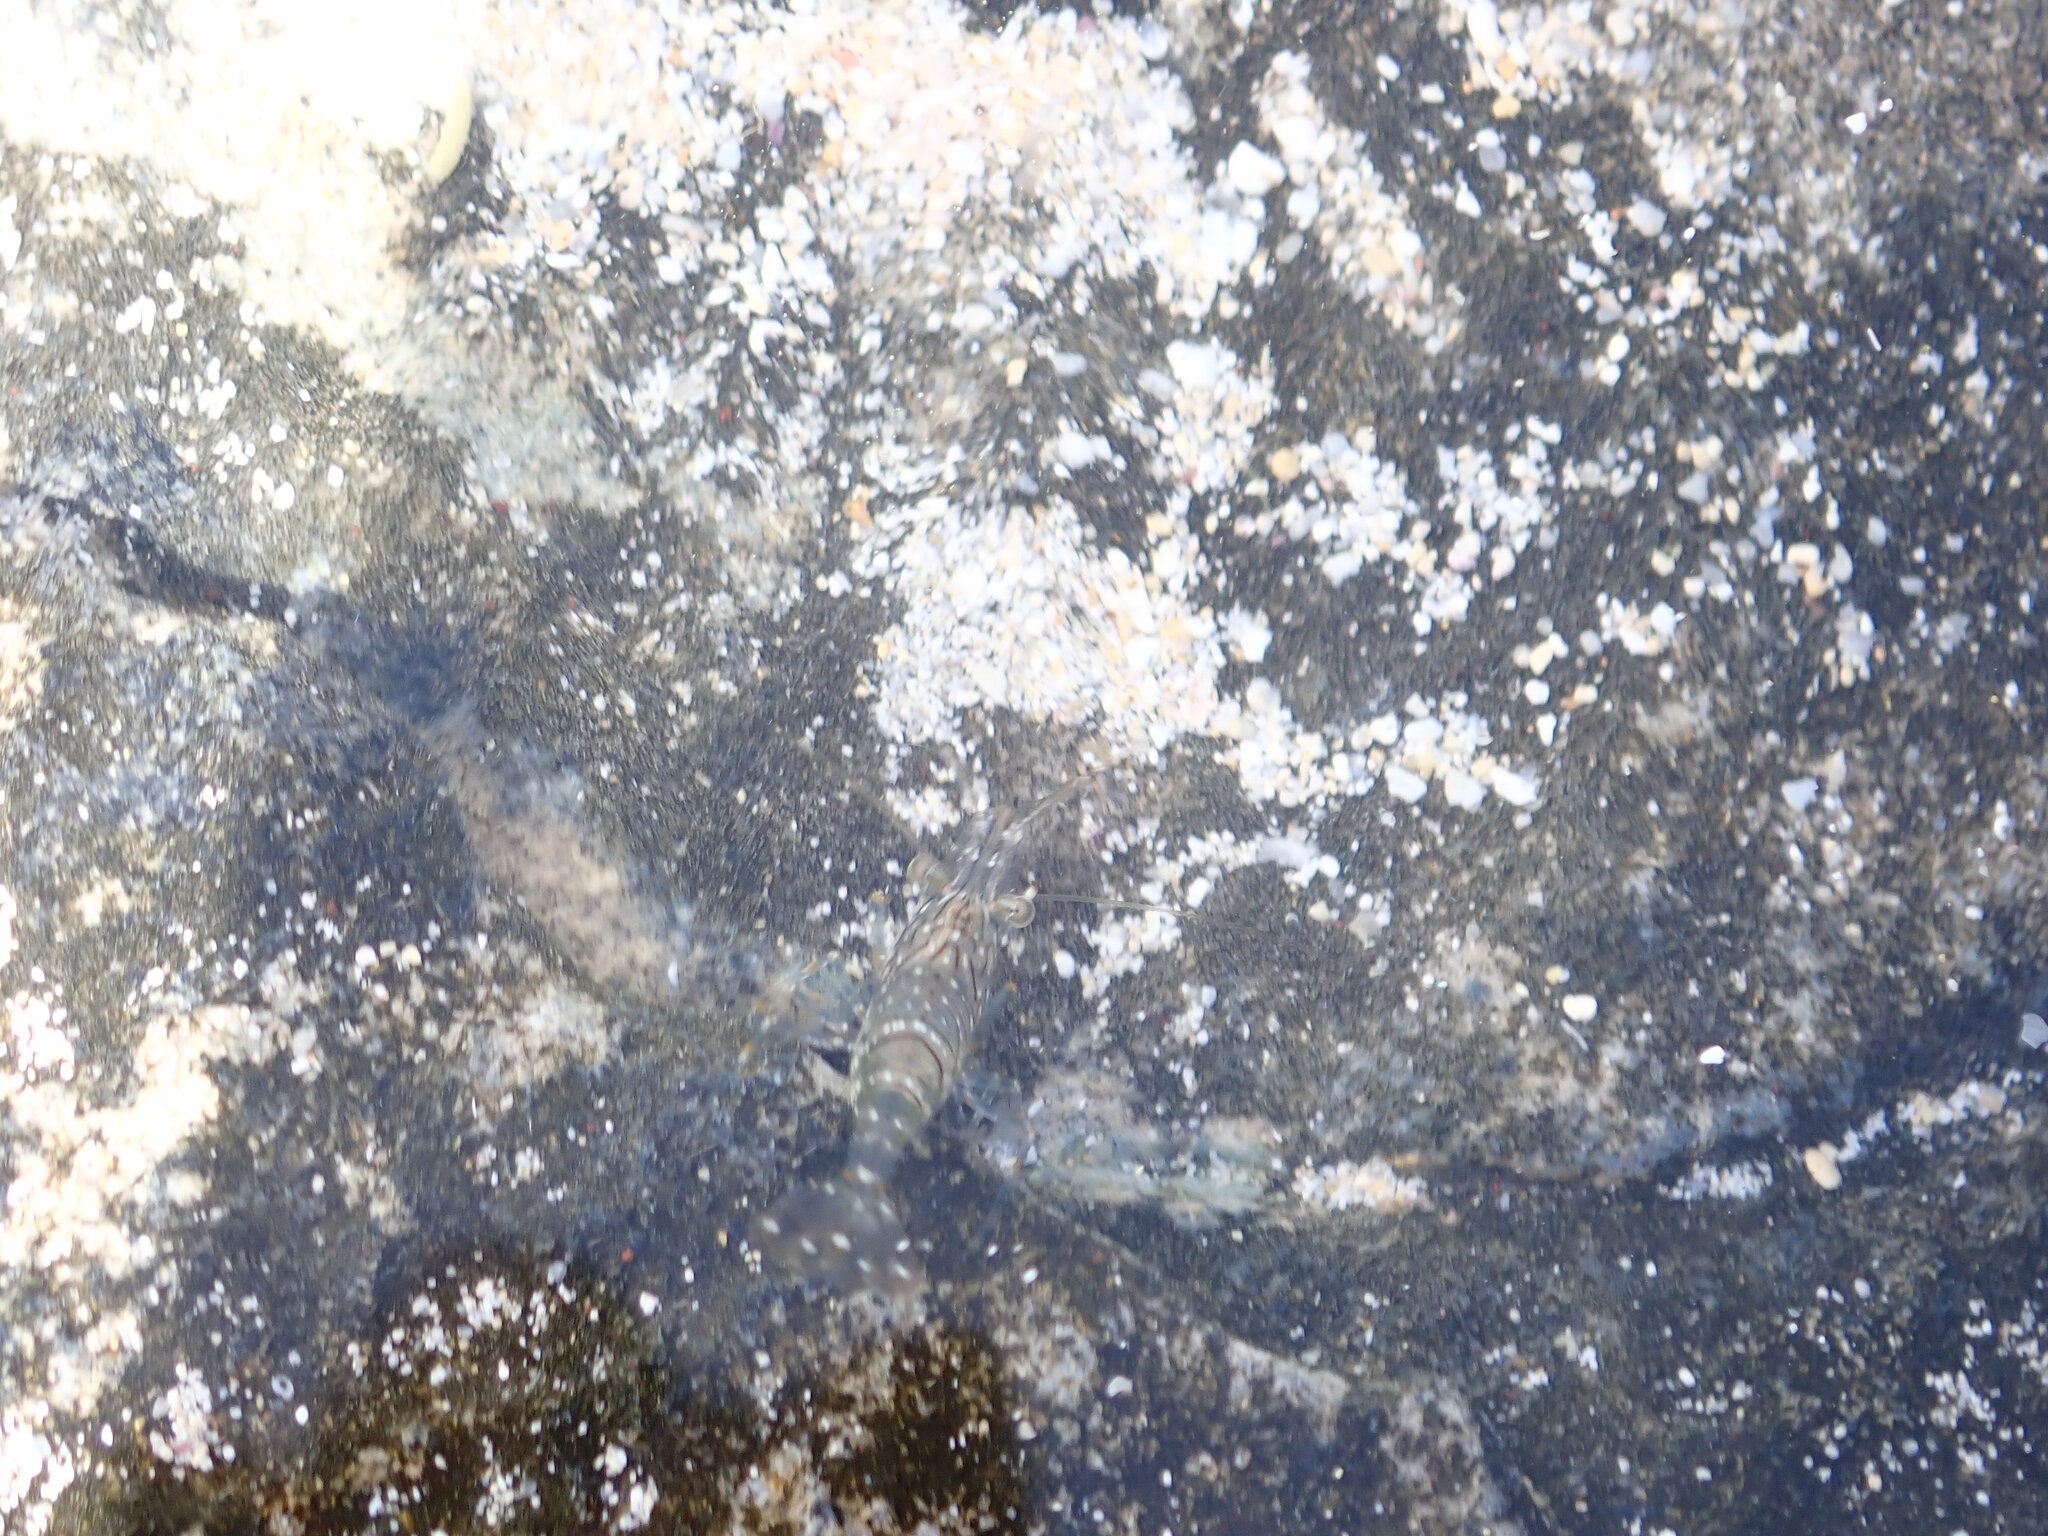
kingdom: Animalia
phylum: Arthropoda
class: Malacostraca
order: Decapoda
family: Palaemonidae
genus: Palaemon
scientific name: Palaemon elegans
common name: Grass prawm
